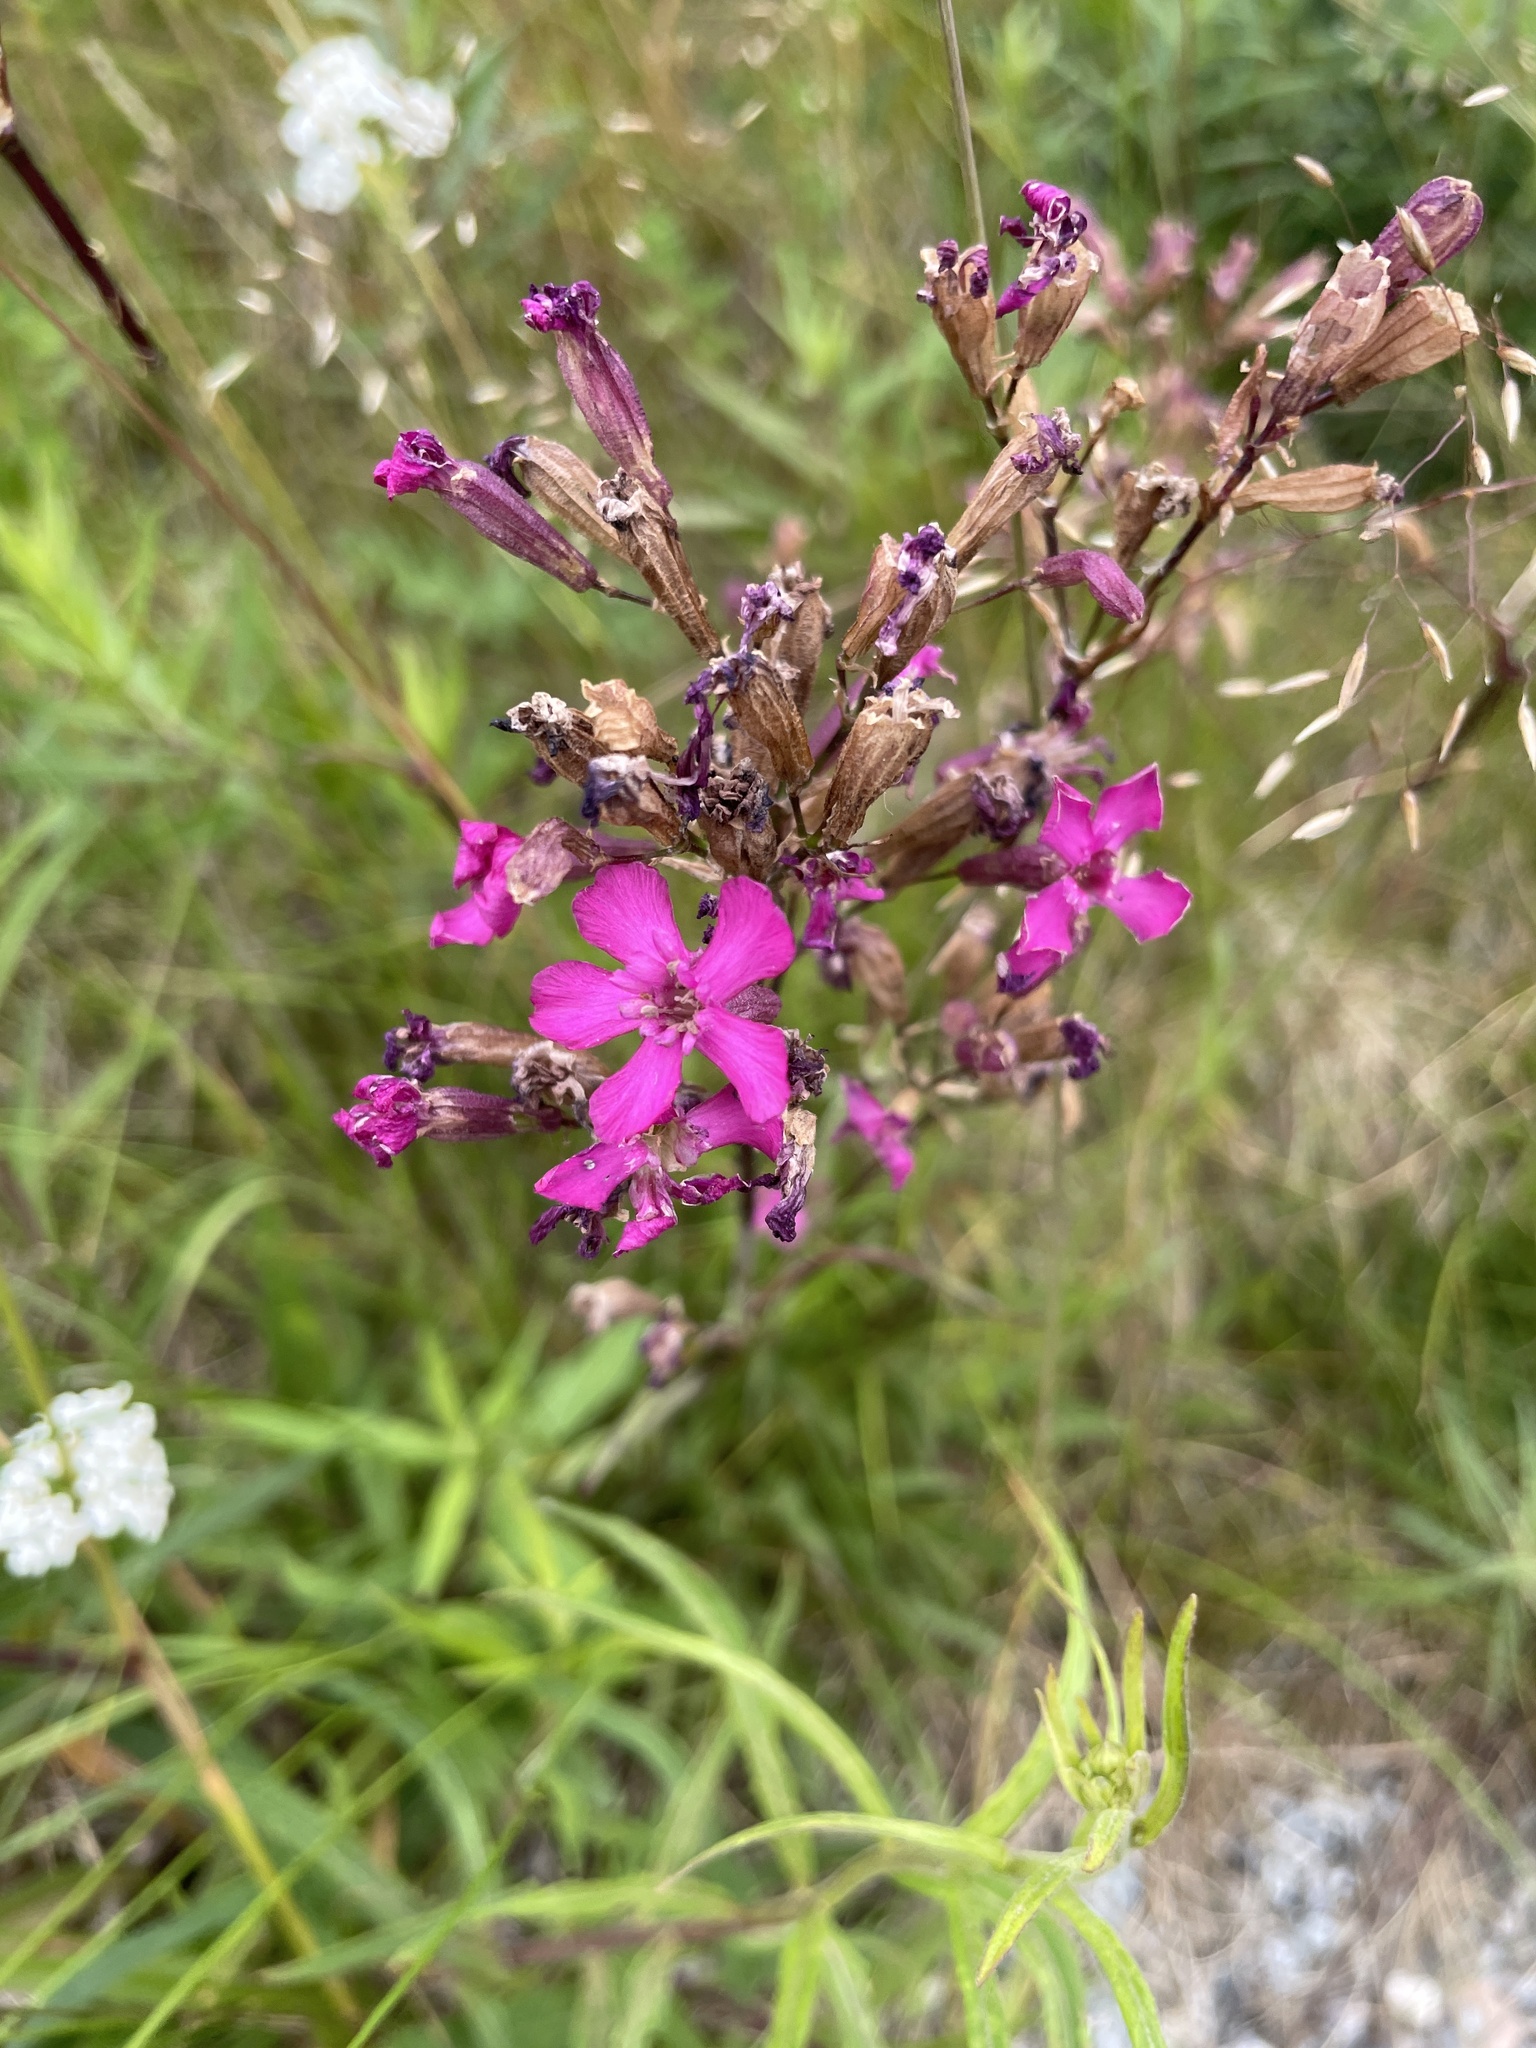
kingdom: Plantae
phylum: Tracheophyta
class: Magnoliopsida
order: Caryophyllales
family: Caryophyllaceae
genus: Viscaria
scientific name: Viscaria vulgaris
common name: Clammy campion
